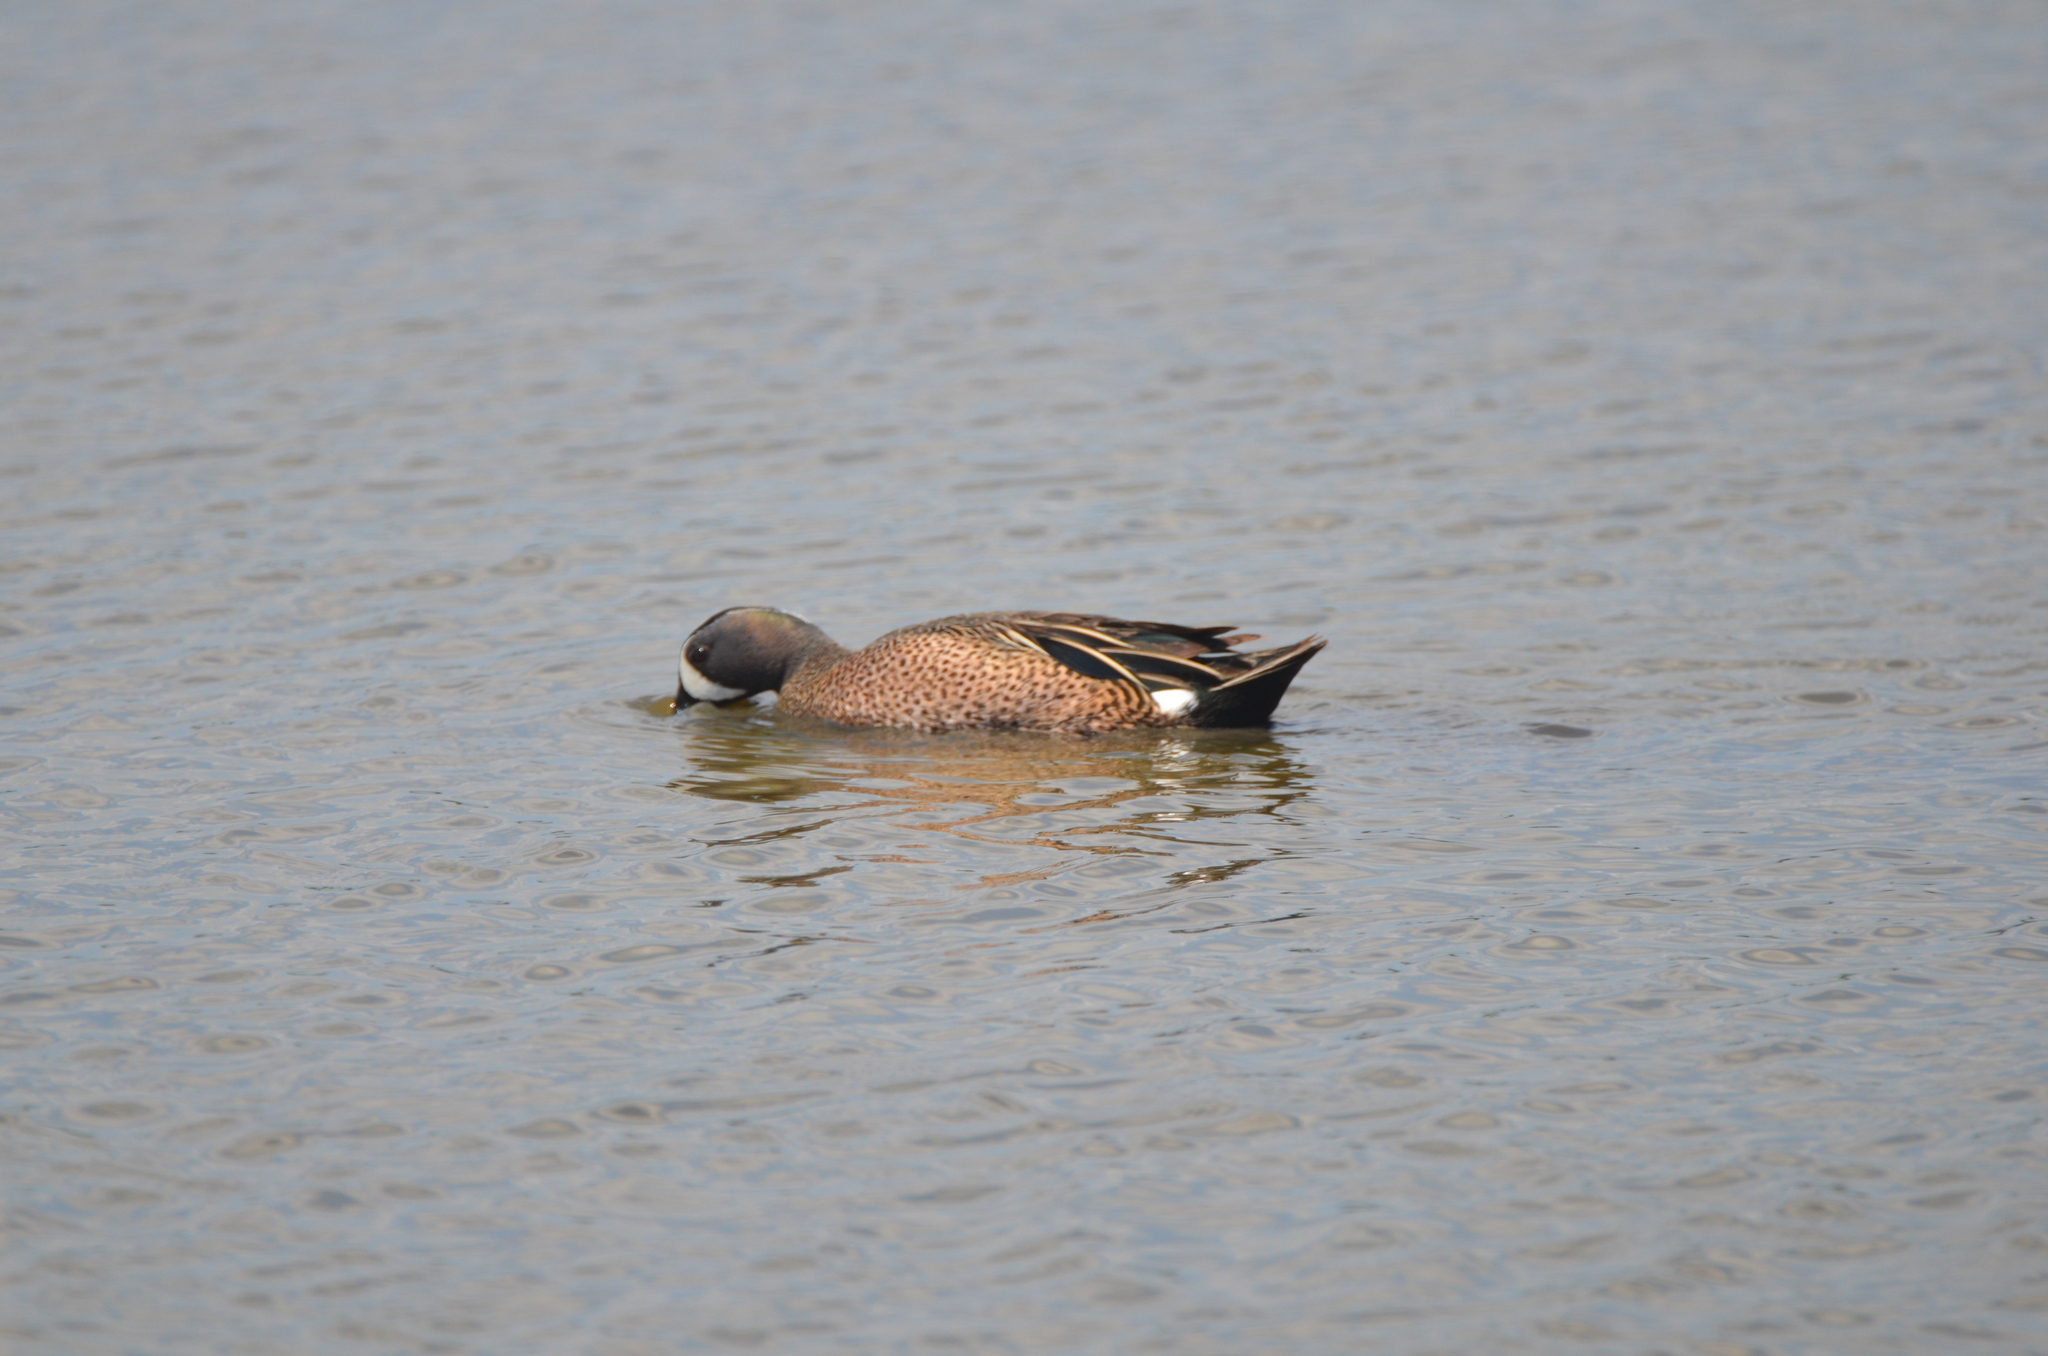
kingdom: Animalia
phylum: Chordata
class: Aves
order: Anseriformes
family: Anatidae
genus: Spatula
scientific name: Spatula discors
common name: Blue-winged teal
